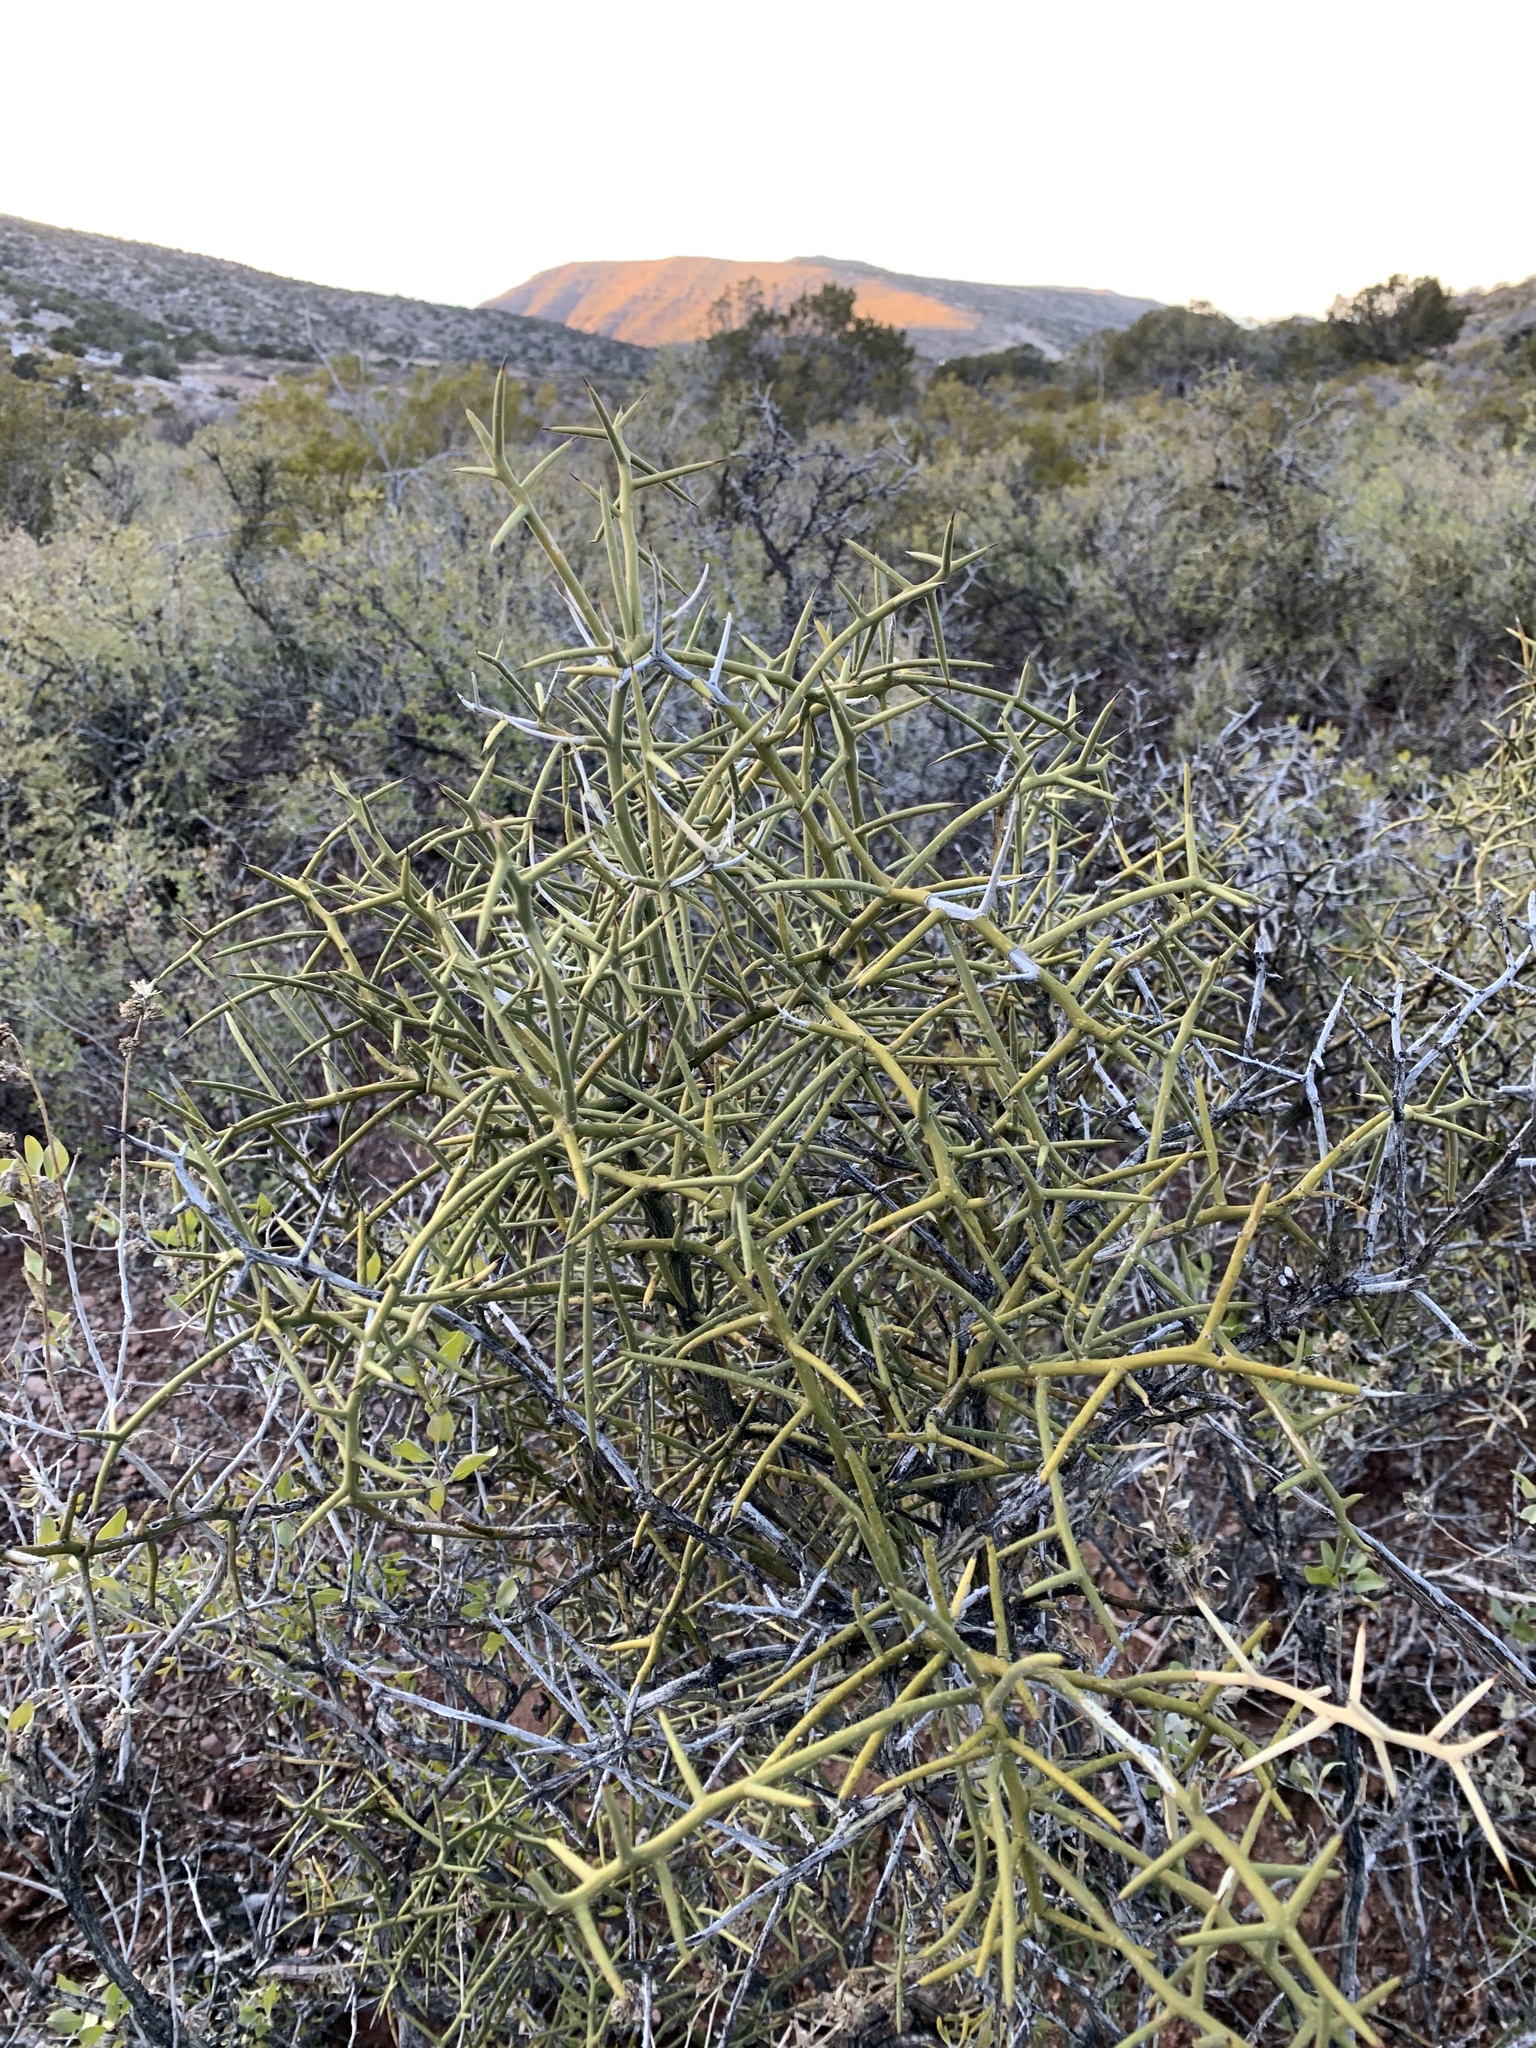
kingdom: Plantae
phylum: Tracheophyta
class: Magnoliopsida
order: Brassicales
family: Koeberliniaceae
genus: Koeberlinia
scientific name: Koeberlinia spinosa
